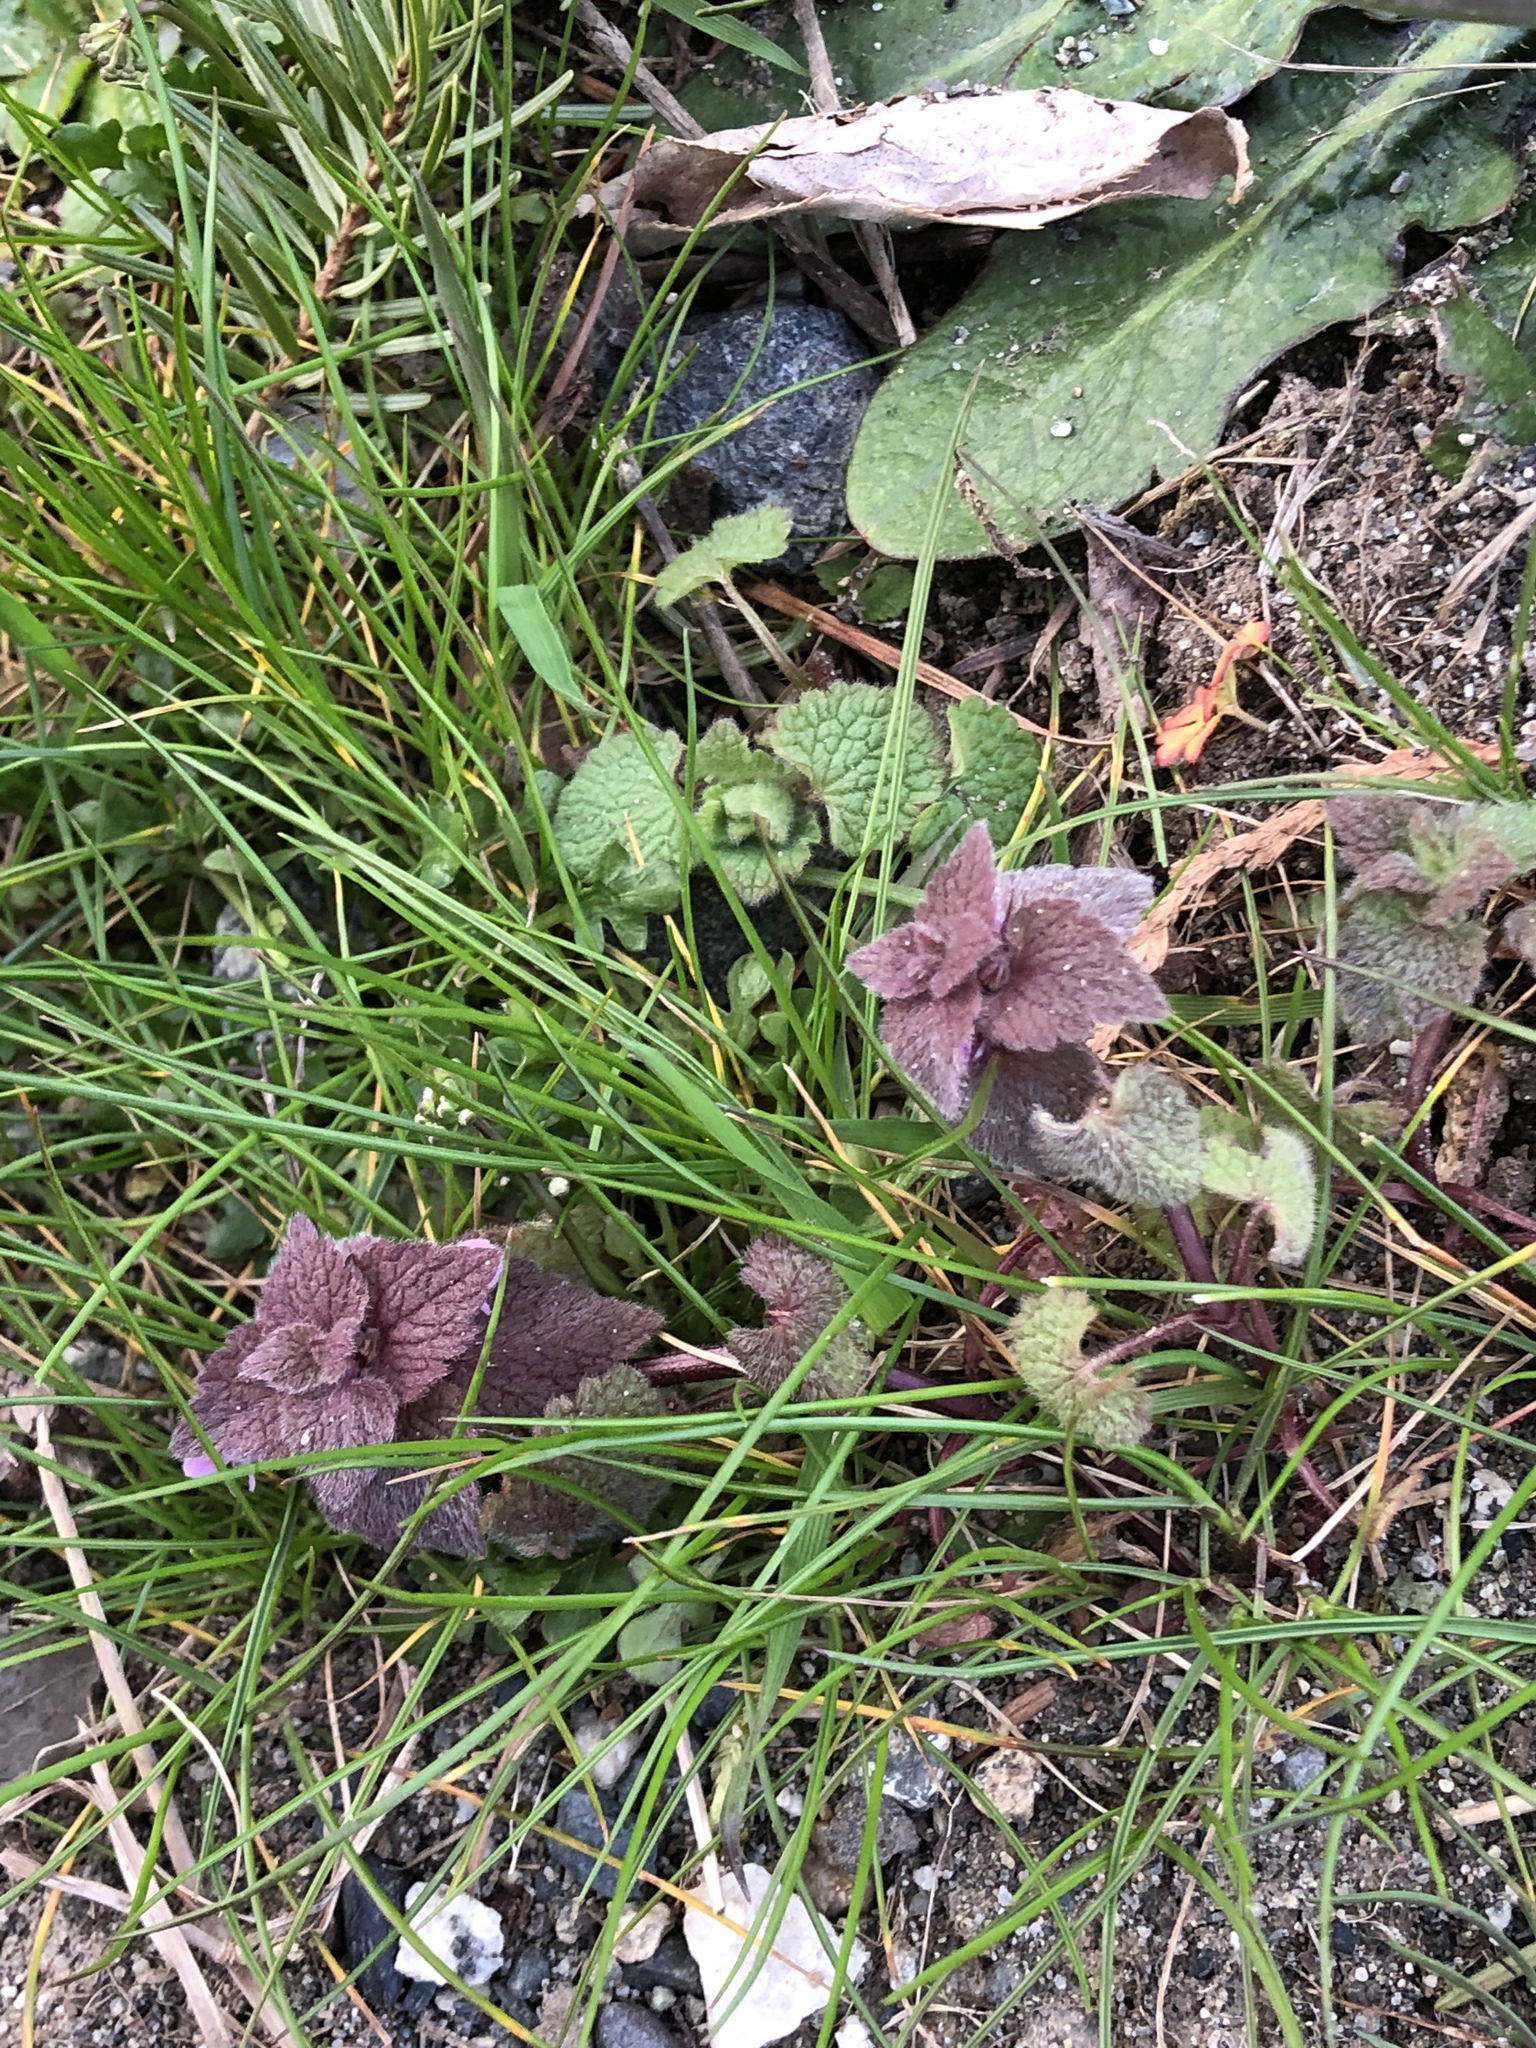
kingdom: Plantae
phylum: Tracheophyta
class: Magnoliopsida
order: Lamiales
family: Lamiaceae
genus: Lamium
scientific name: Lamium purpureum
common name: Red dead-nettle
